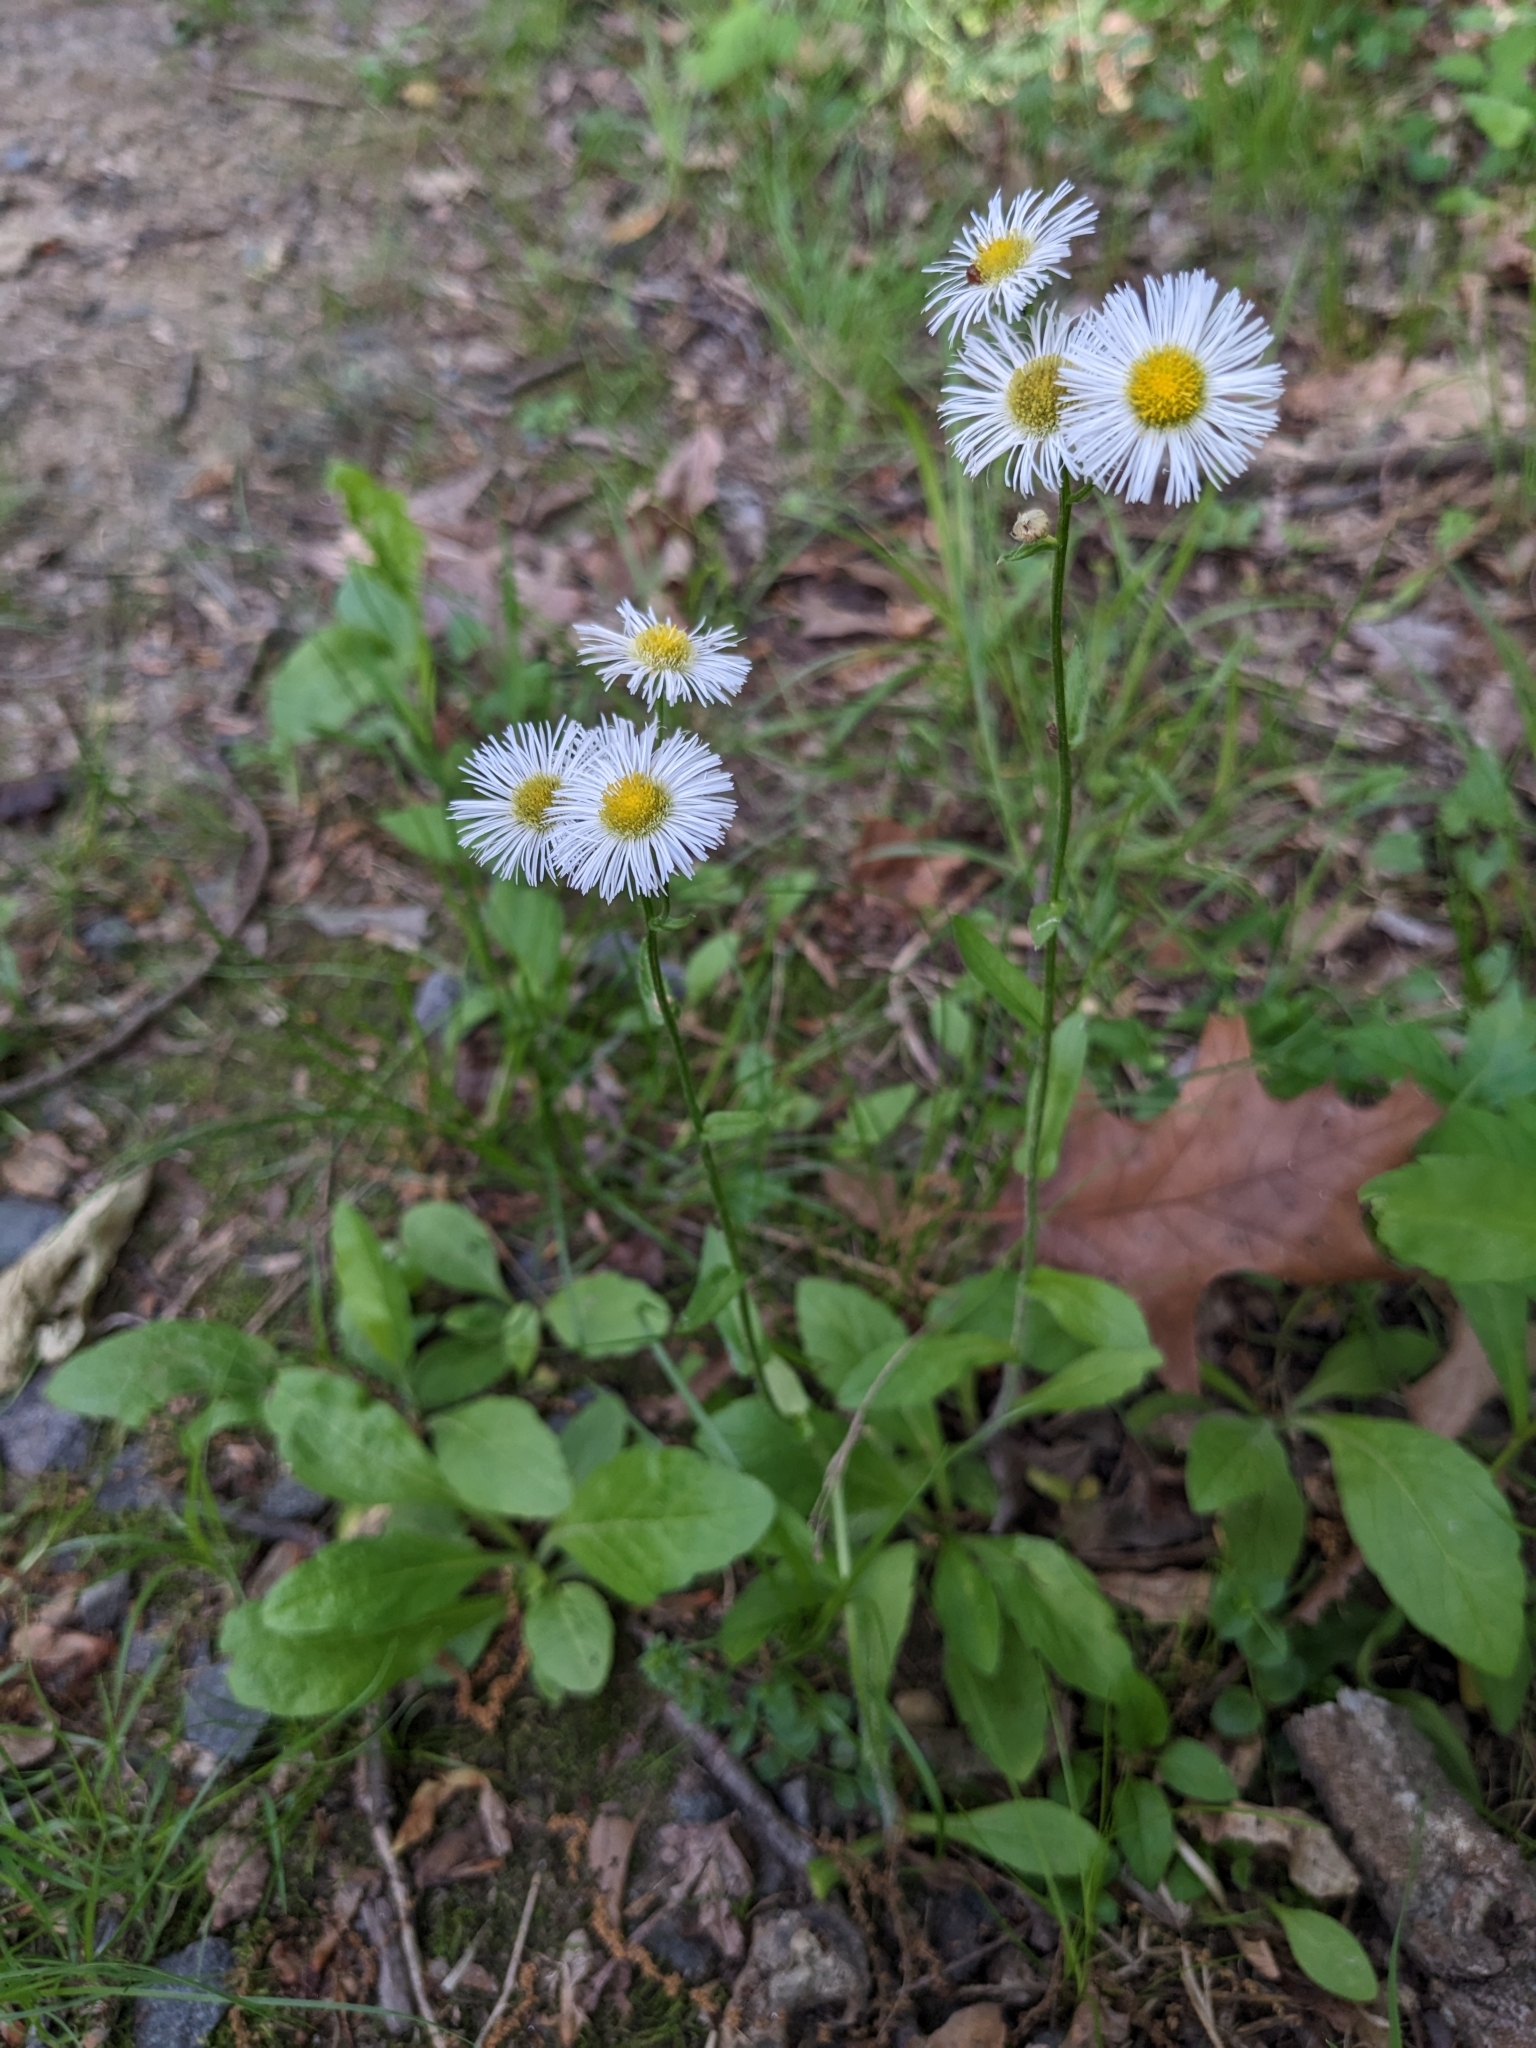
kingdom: Plantae
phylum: Tracheophyta
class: Magnoliopsida
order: Asterales
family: Asteraceae
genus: Erigeron
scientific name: Erigeron philadelphicus
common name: Robin's-plantain
